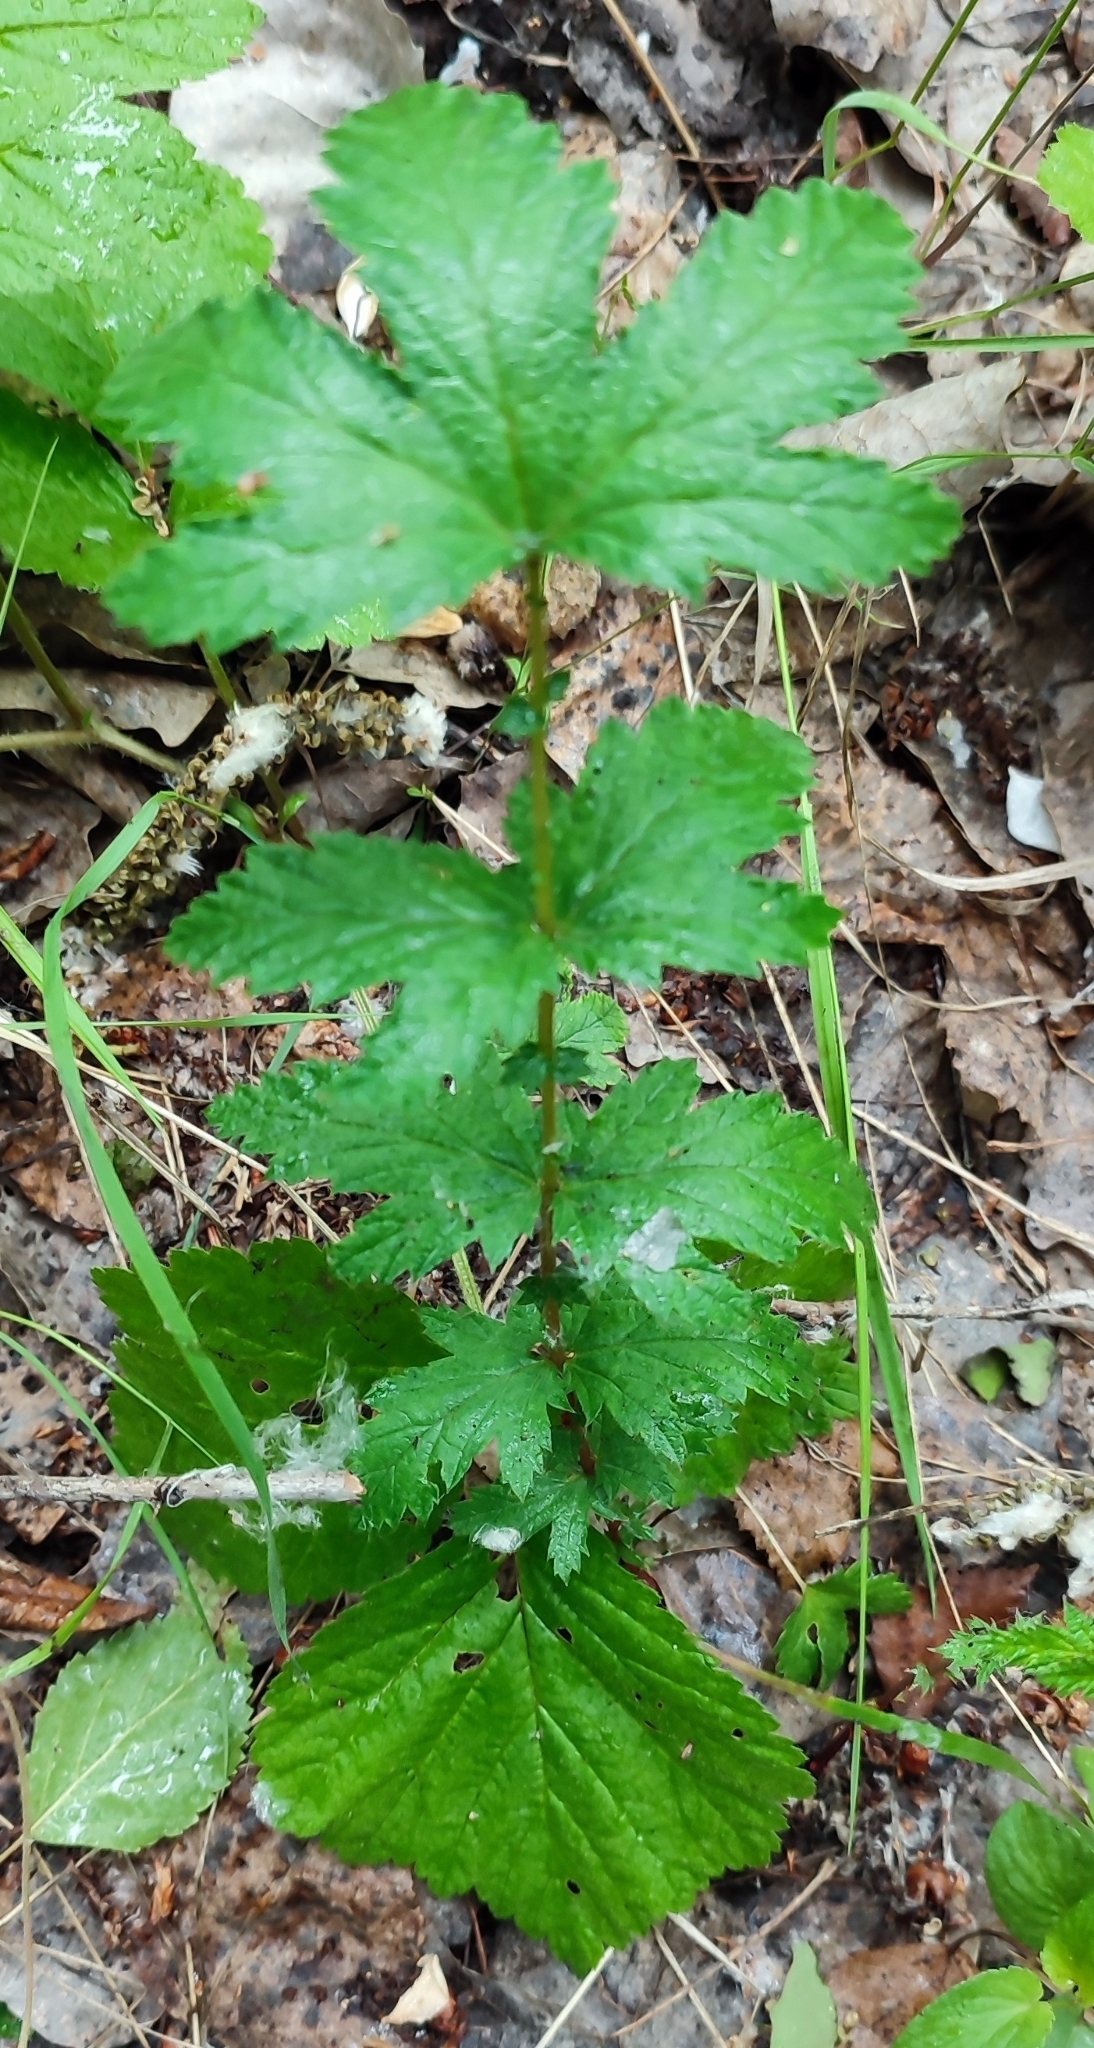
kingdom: Plantae
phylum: Tracheophyta
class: Magnoliopsida
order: Rosales
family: Rosaceae
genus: Filipendula
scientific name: Filipendula ulmaria
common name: Meadowsweet
